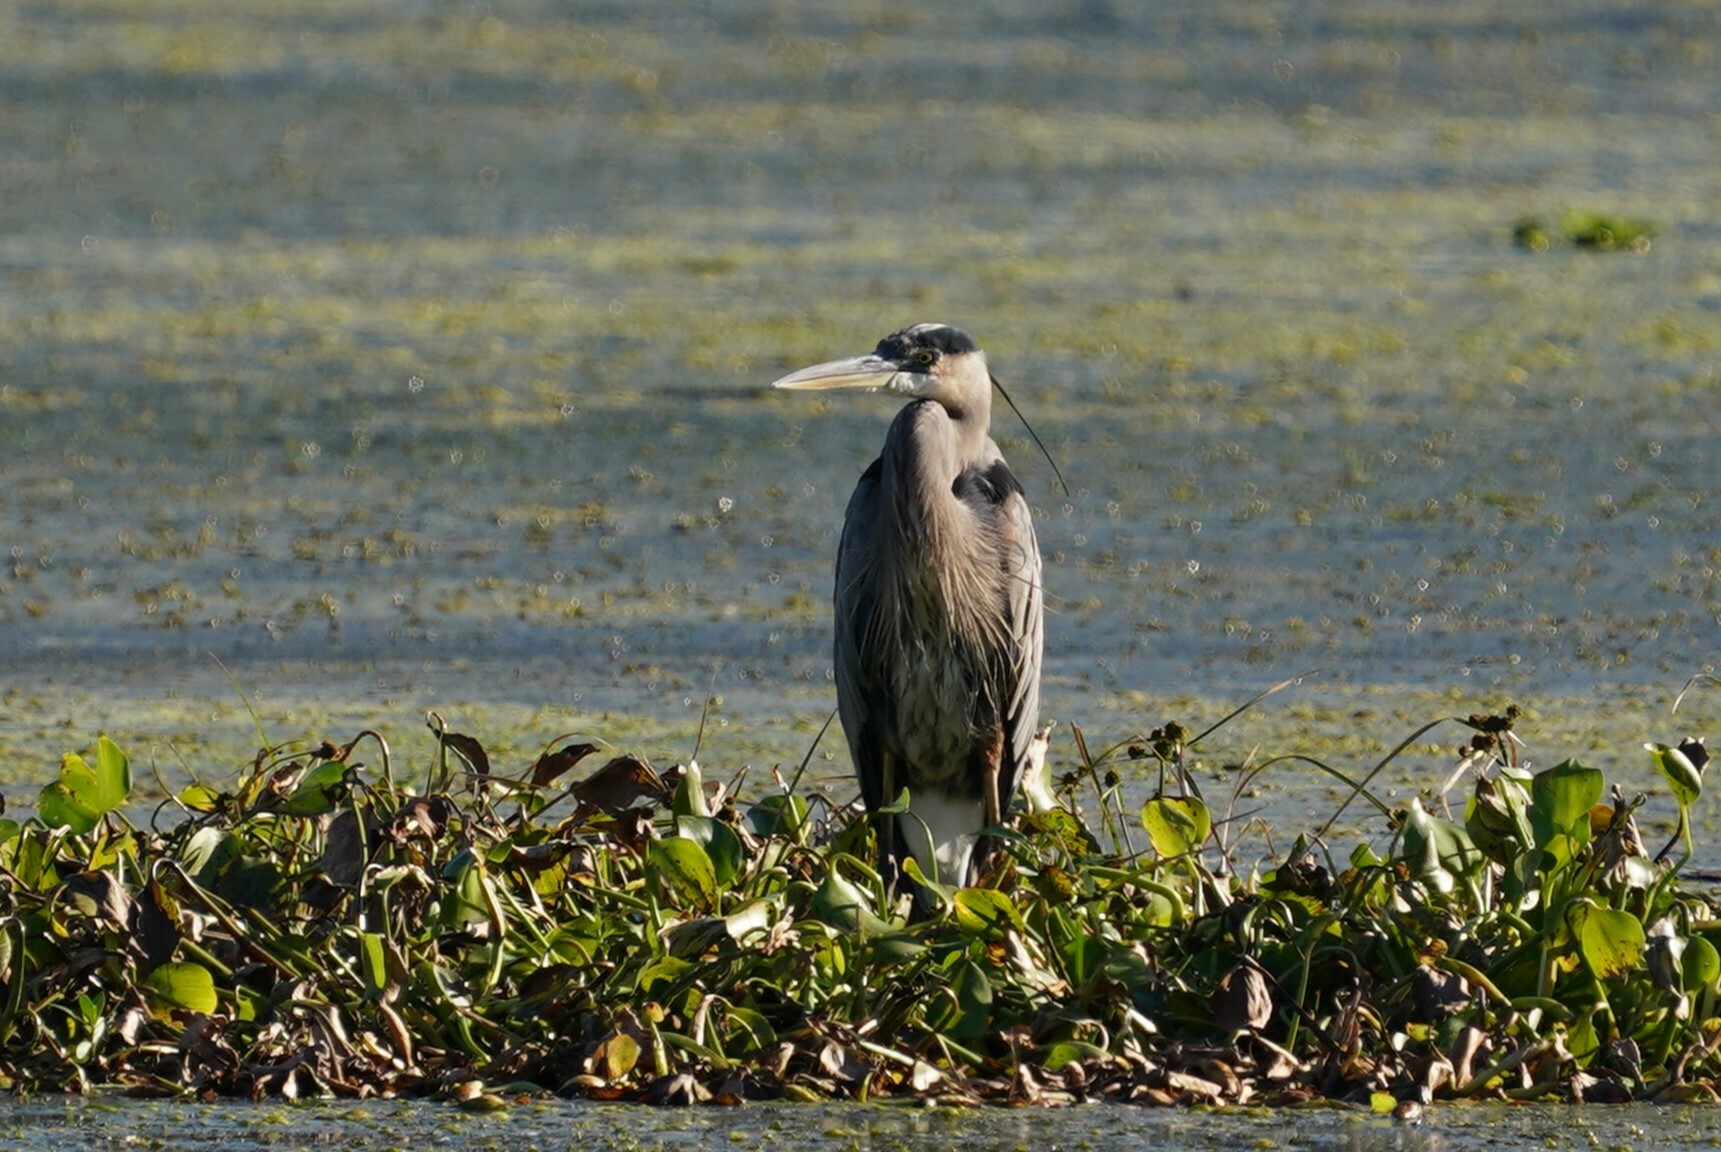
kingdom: Animalia
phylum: Chordata
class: Aves
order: Pelecaniformes
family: Ardeidae
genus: Ardea
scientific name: Ardea herodias
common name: Great blue heron
